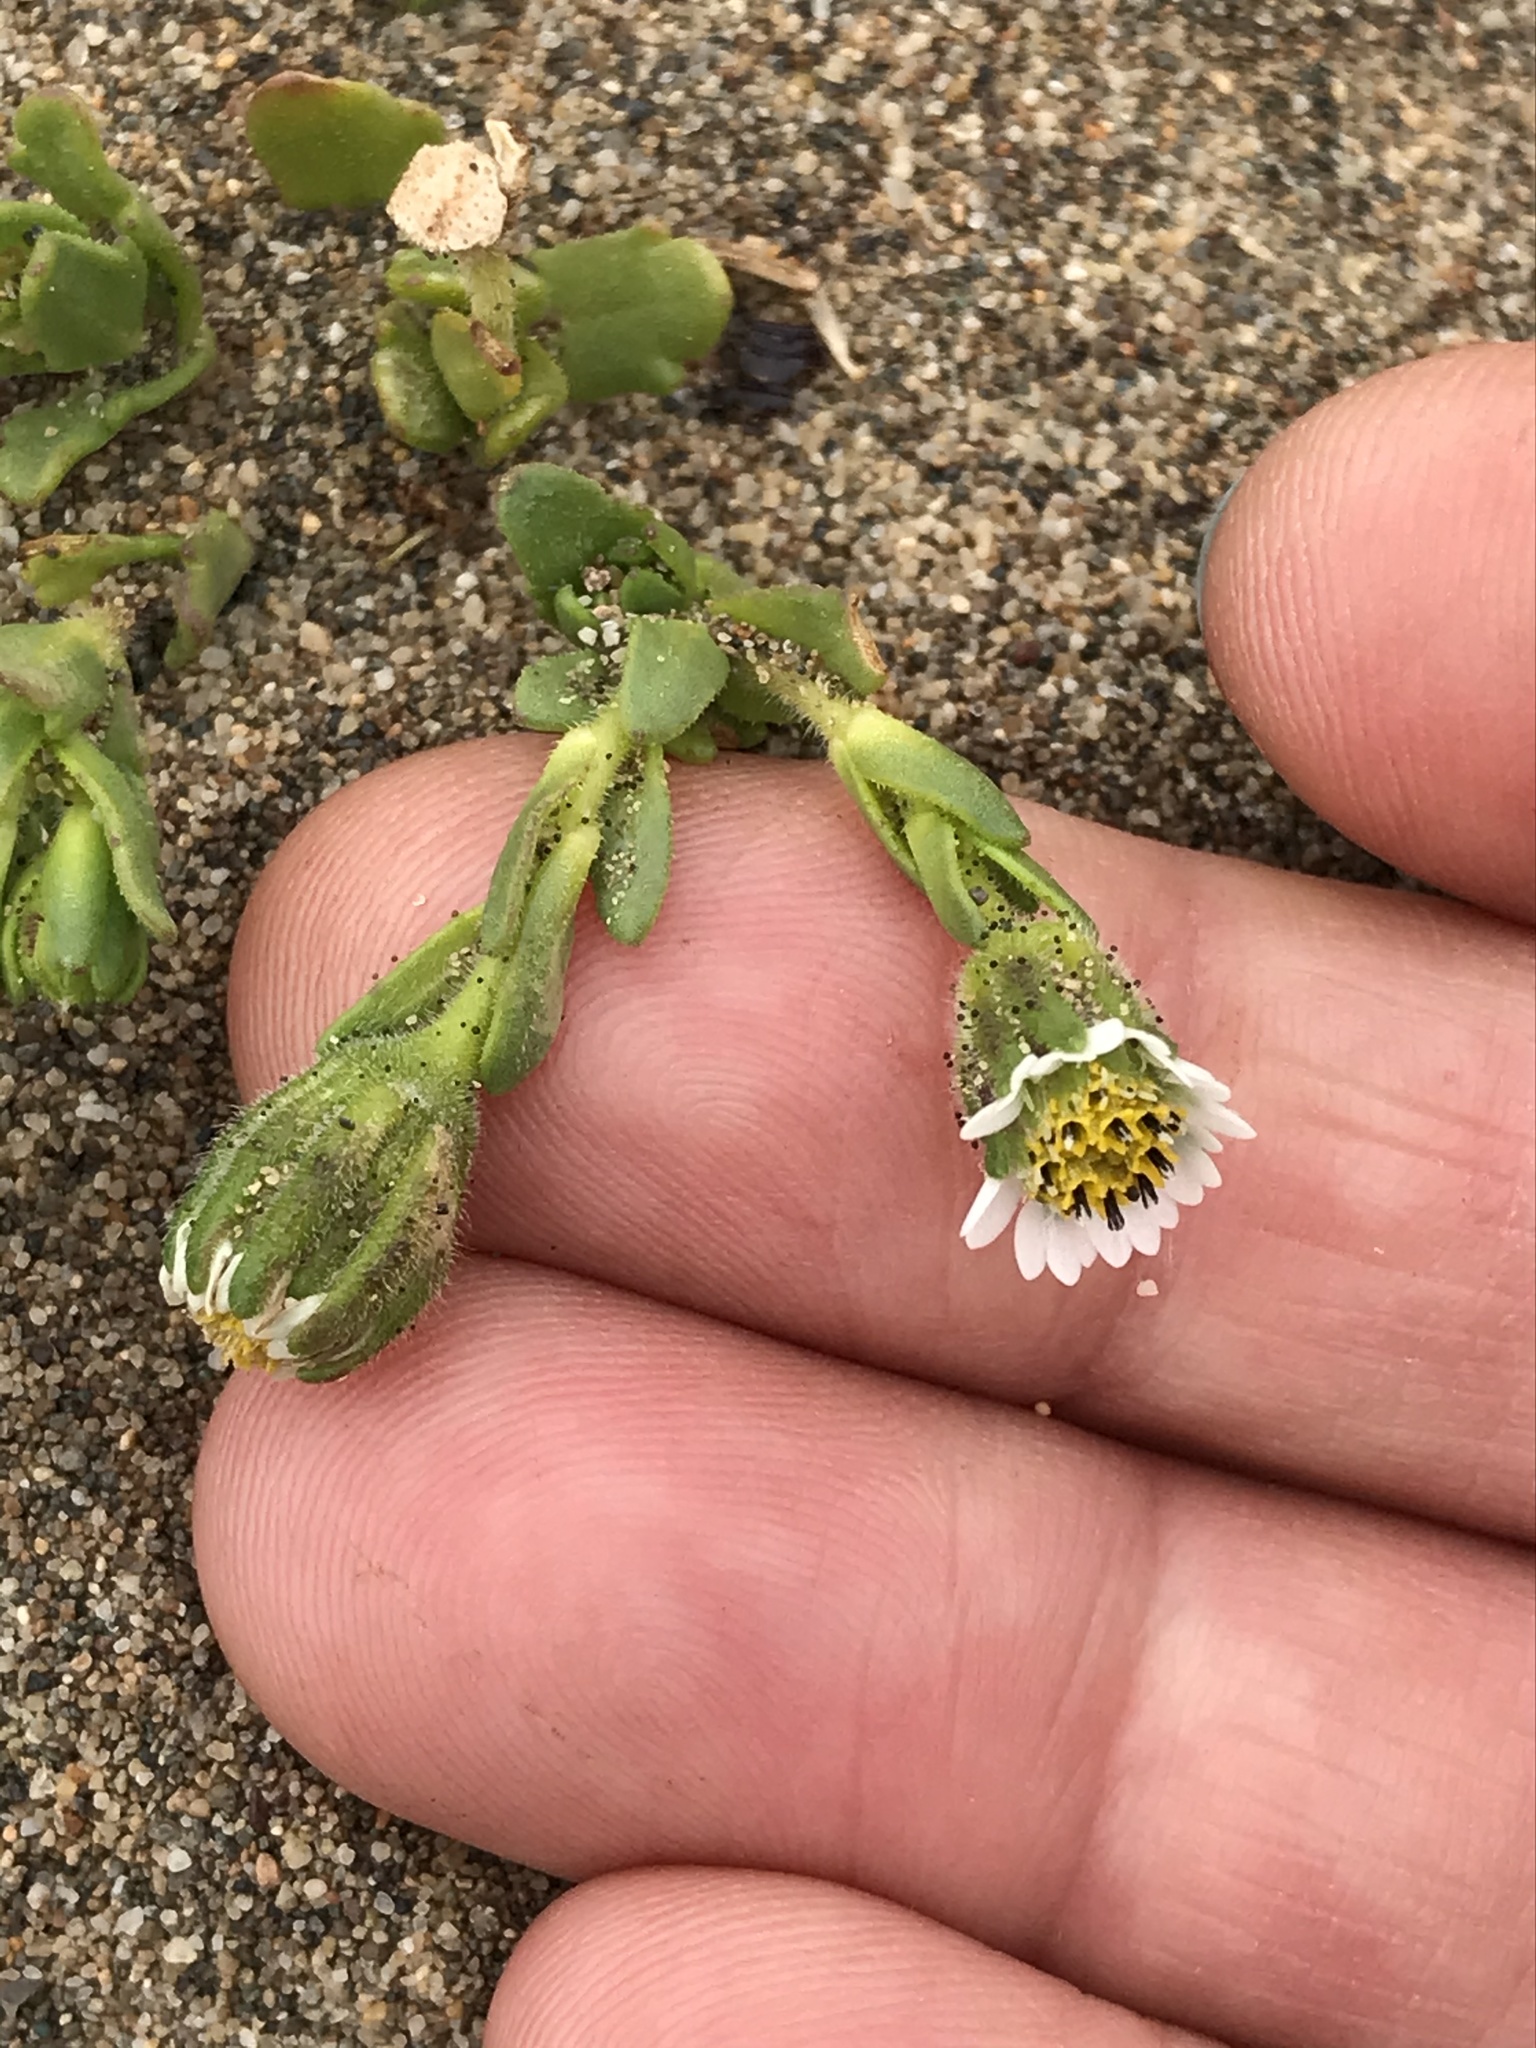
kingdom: Plantae
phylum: Tracheophyta
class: Magnoliopsida
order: Asterales
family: Asteraceae
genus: Layia
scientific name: Layia carnosa
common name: Beach layia
